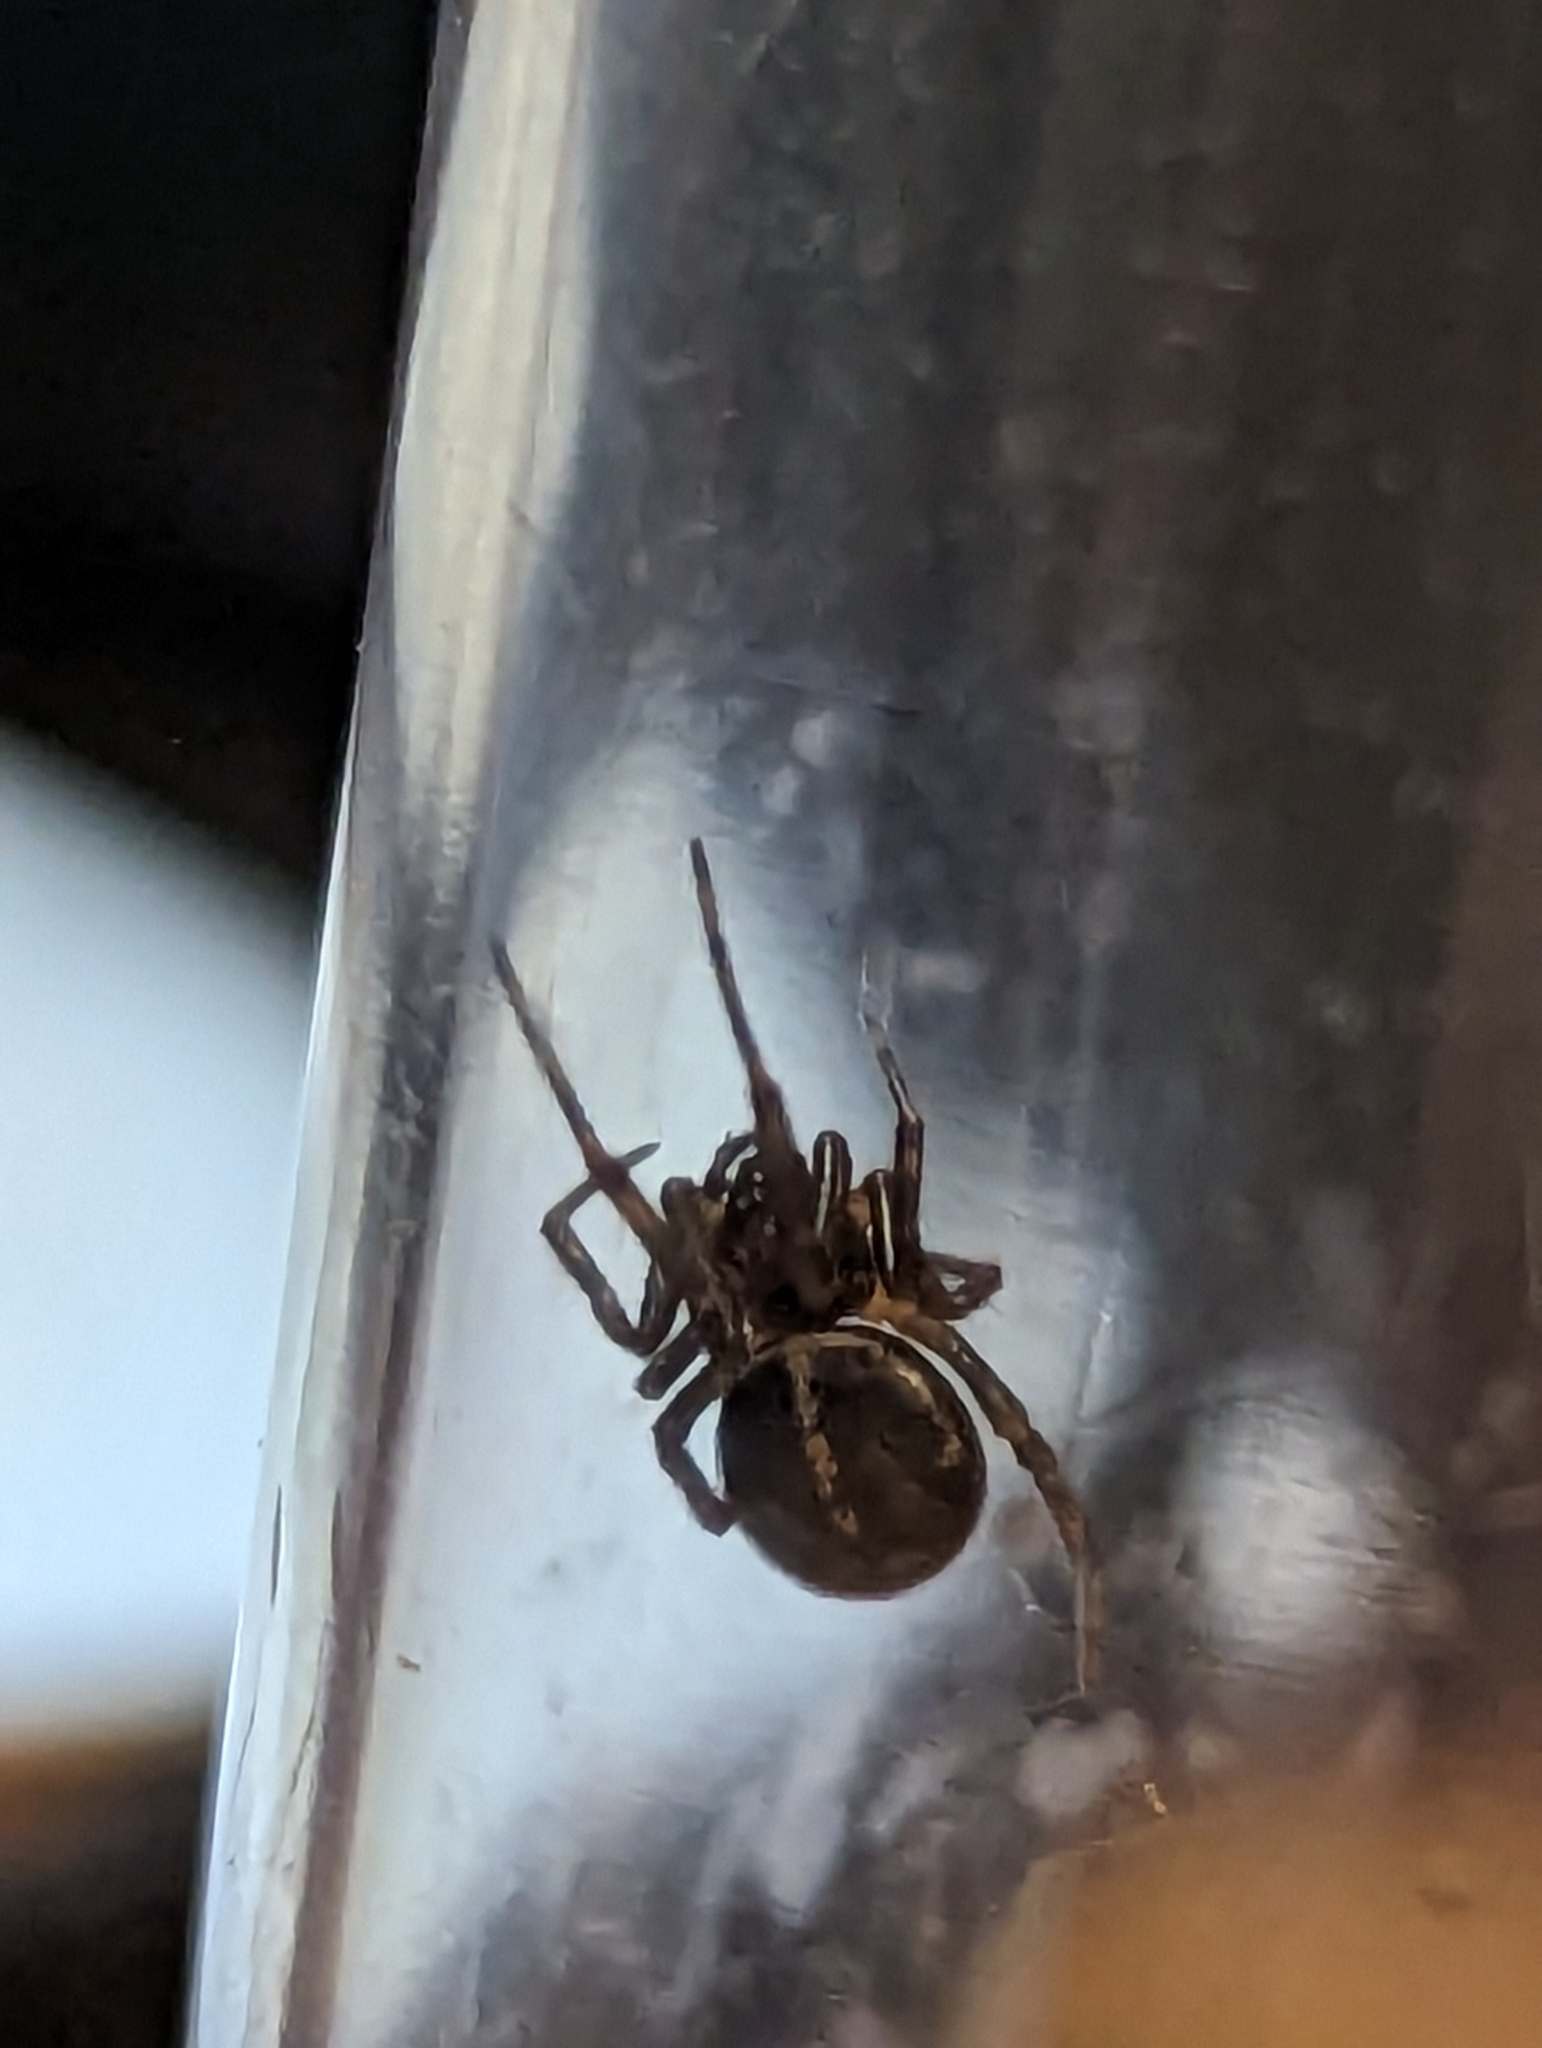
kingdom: Animalia
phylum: Arthropoda
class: Arachnida
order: Araneae
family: Theridiidae
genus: Steatoda
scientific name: Steatoda borealis
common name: Boreal combfoot
